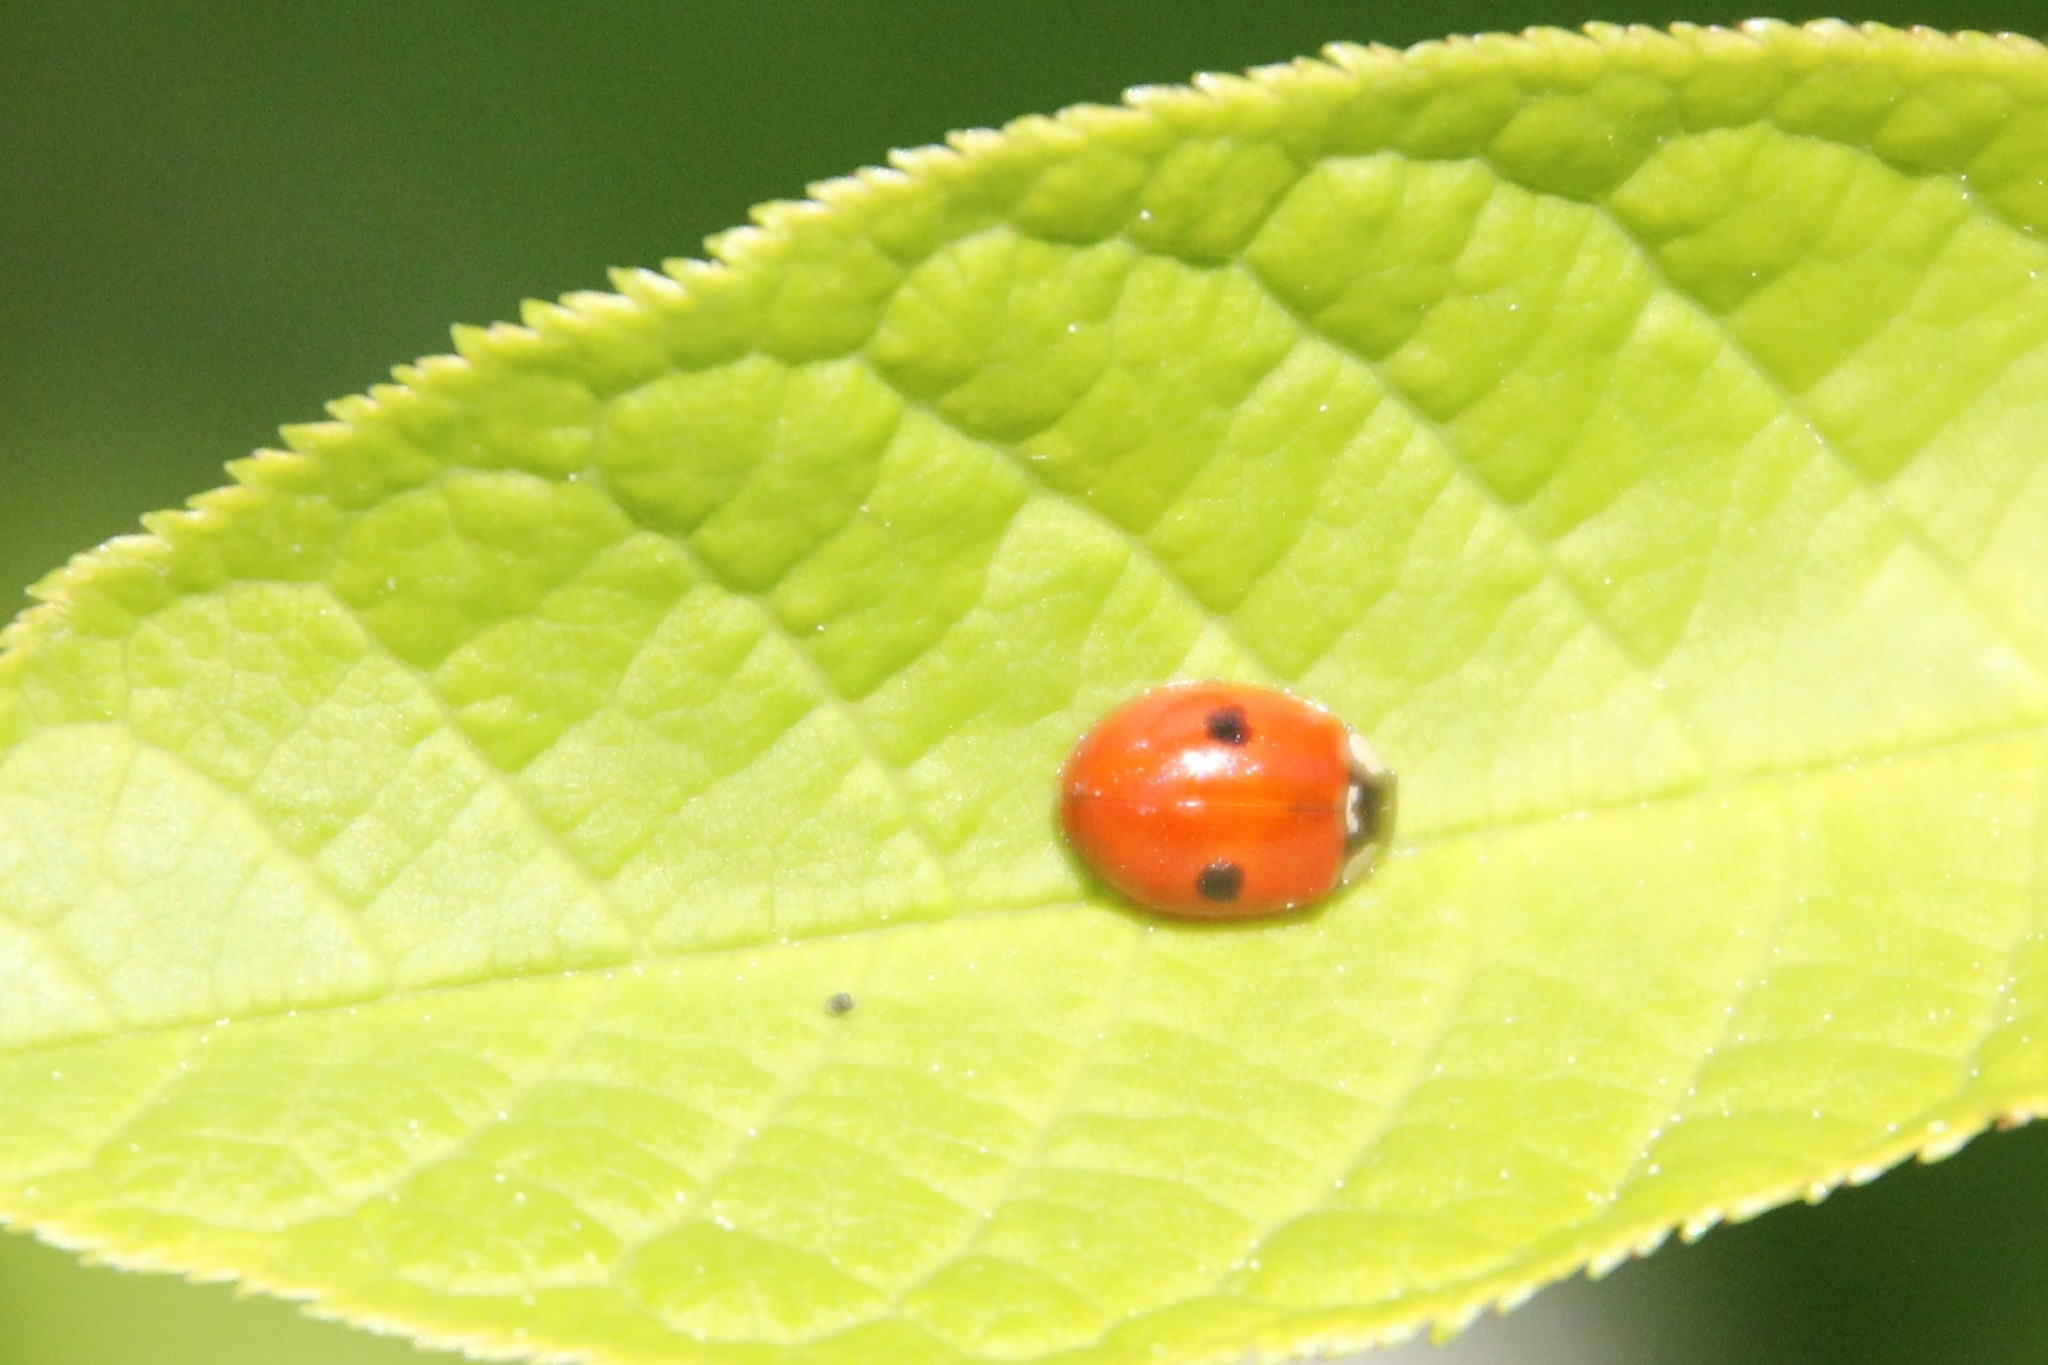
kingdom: Animalia
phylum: Arthropoda
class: Insecta
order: Coleoptera
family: Coccinellidae
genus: Adalia
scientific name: Adalia bipunctata
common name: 2-spot ladybird
